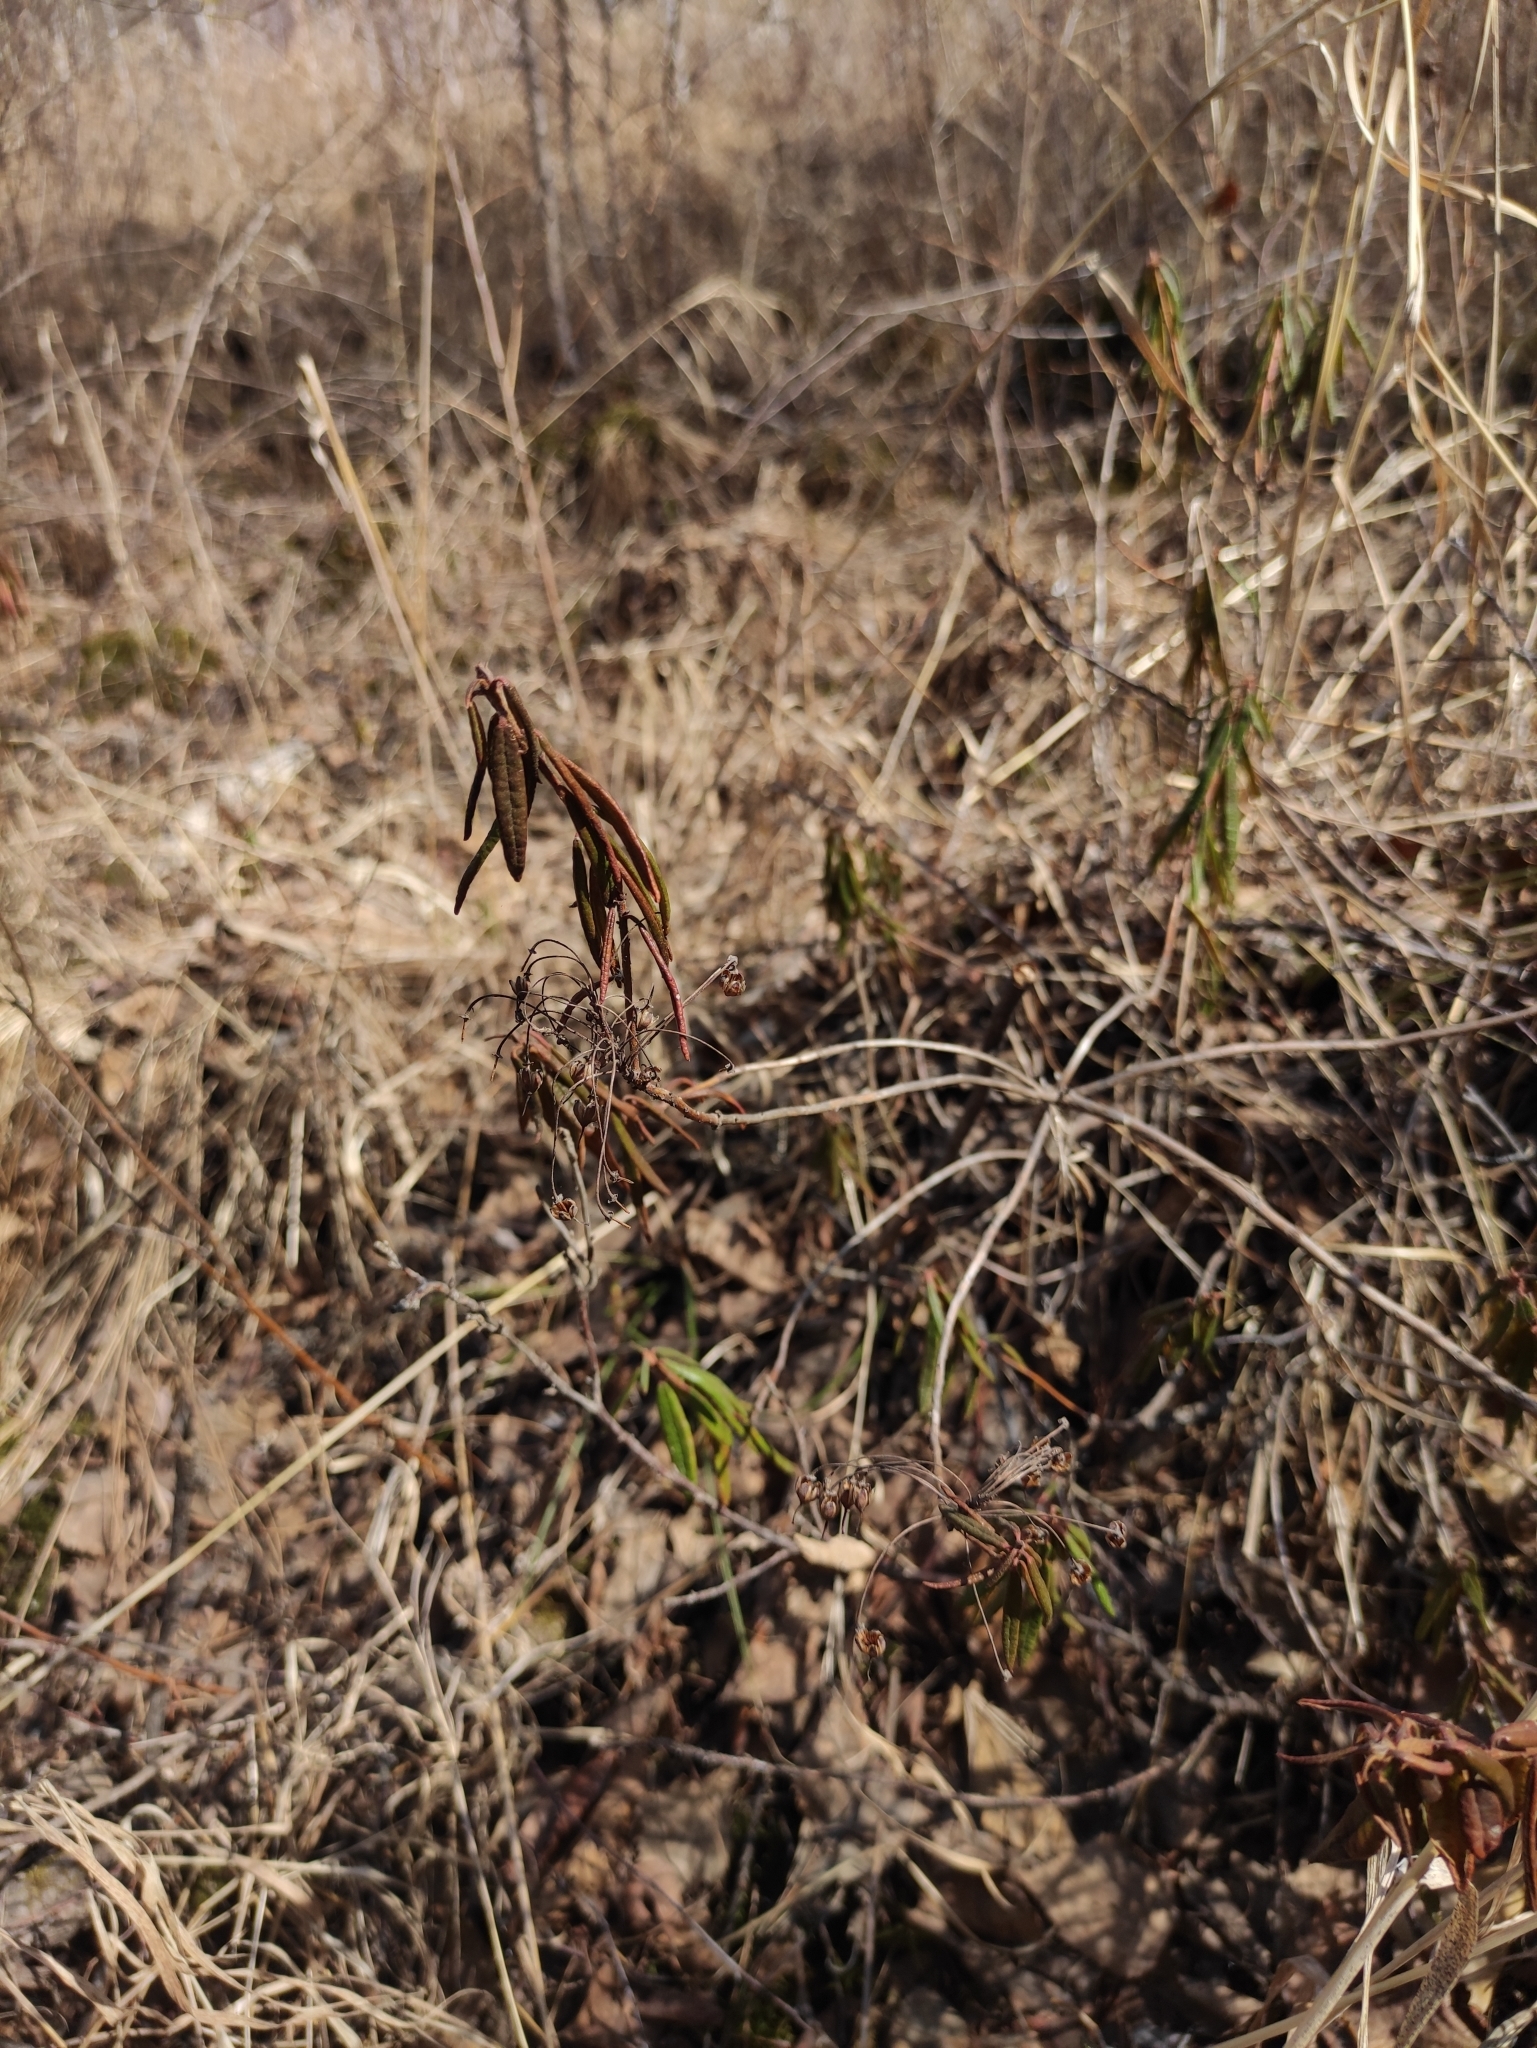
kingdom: Plantae
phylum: Tracheophyta
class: Magnoliopsida
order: Ericales
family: Ericaceae
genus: Rhododendron
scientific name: Rhododendron tomentosum
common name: Marsh labrador tea
